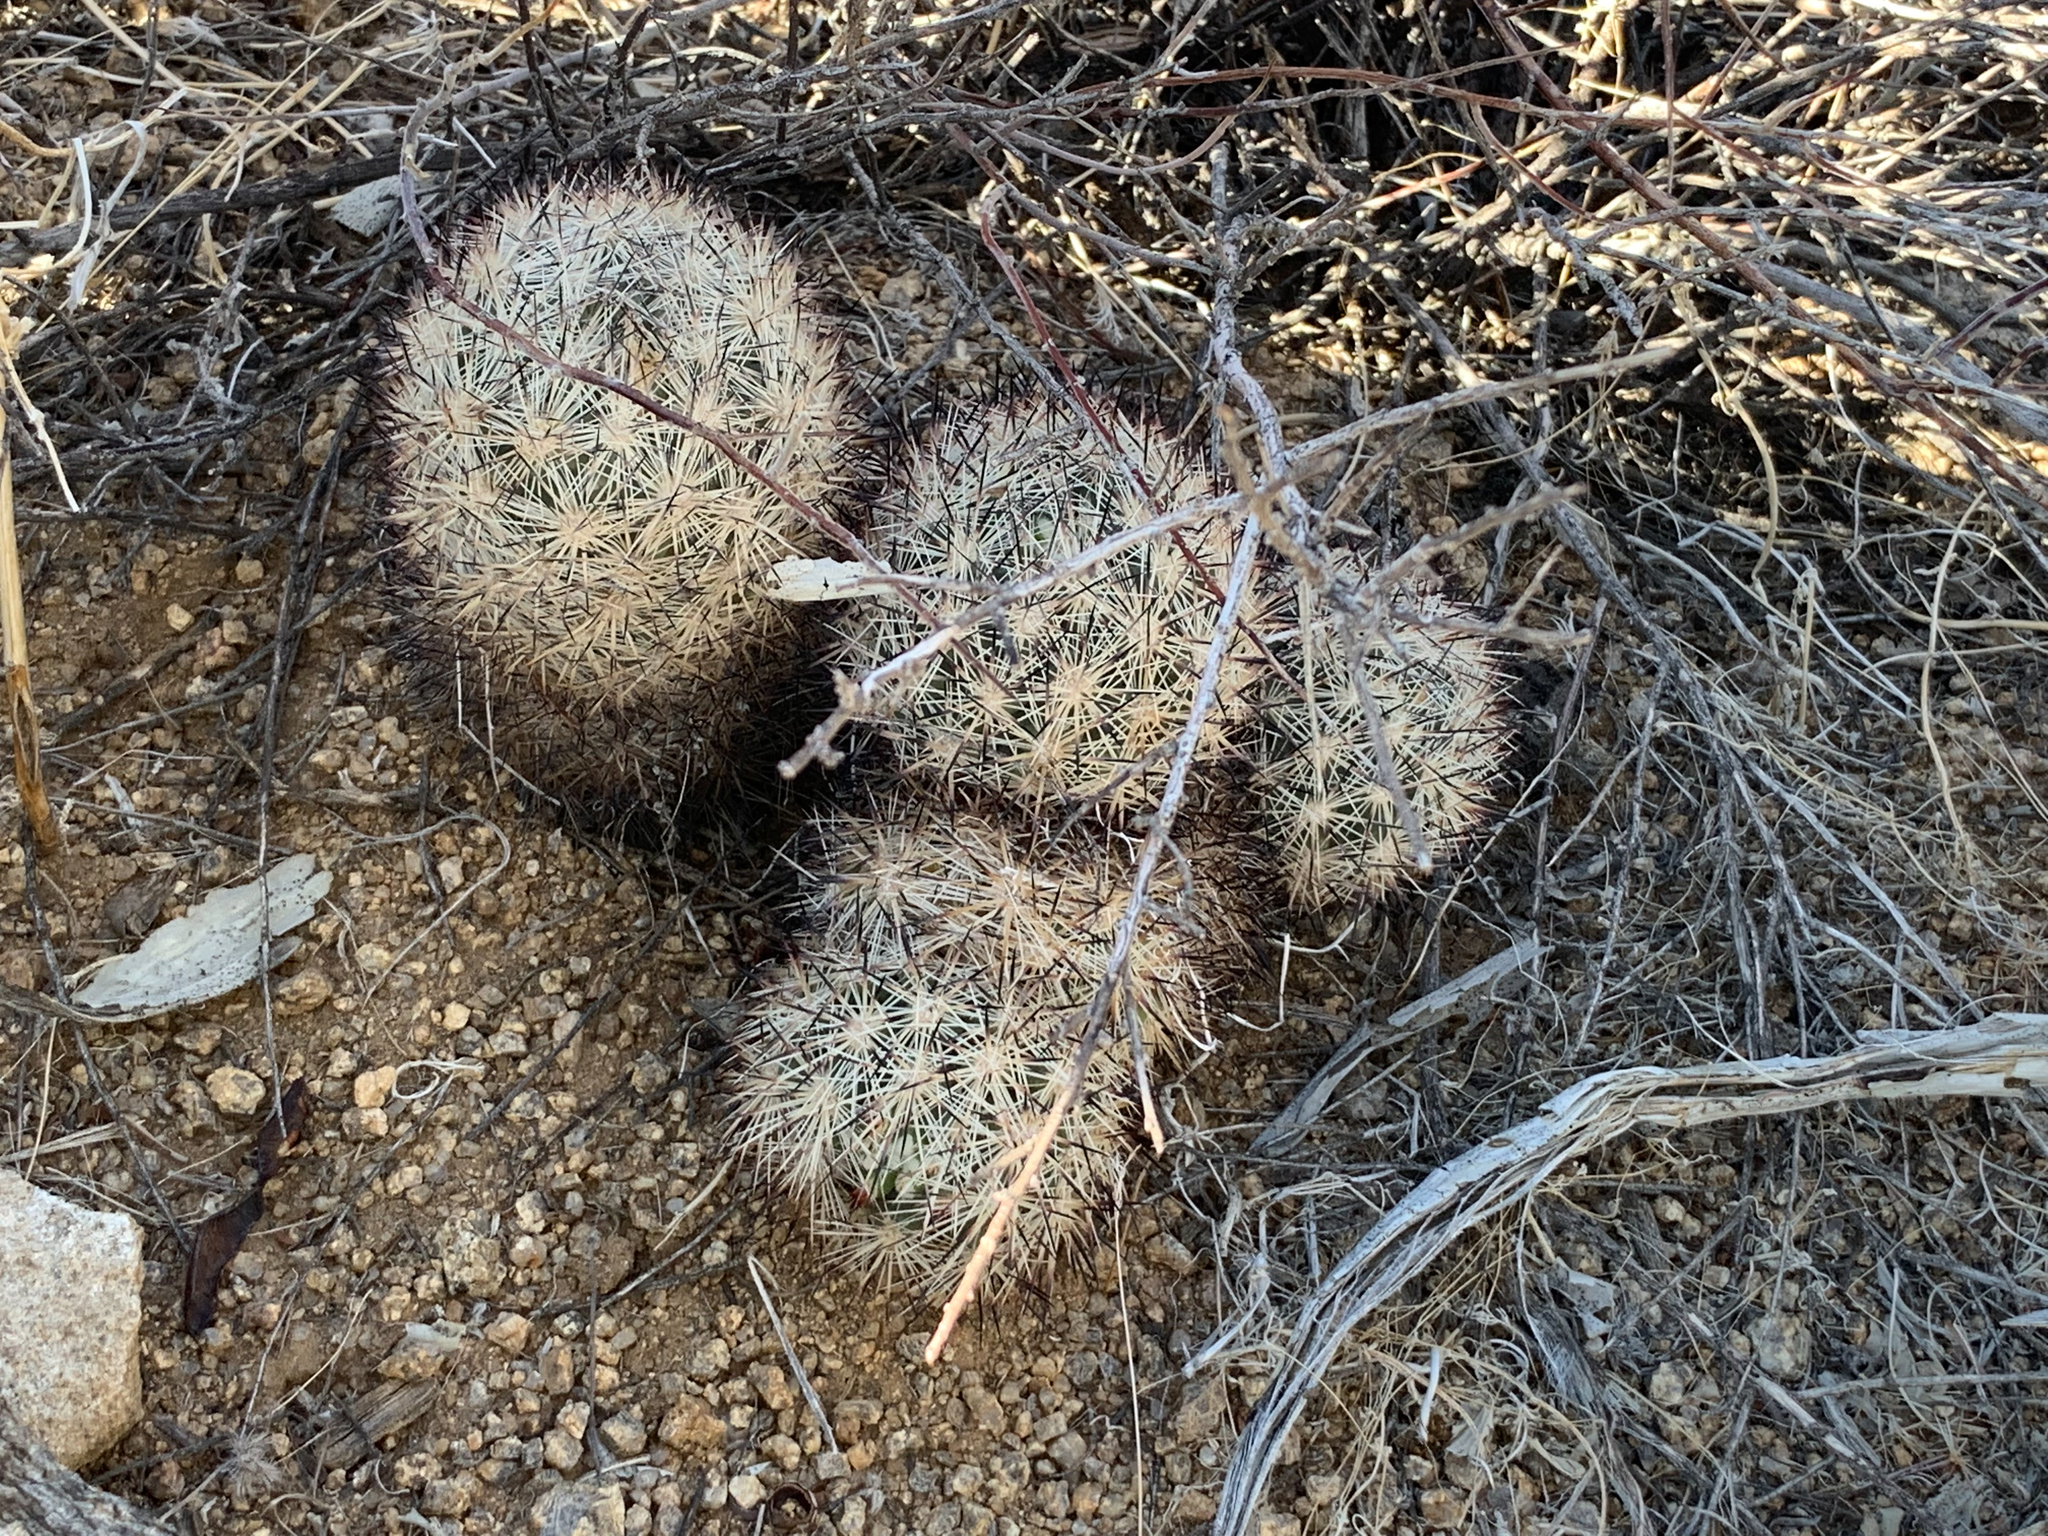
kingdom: Plantae
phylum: Tracheophyta
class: Magnoliopsida
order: Caryophyllales
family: Cactaceae
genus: Pelecyphora
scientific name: Pelecyphora alversonii
